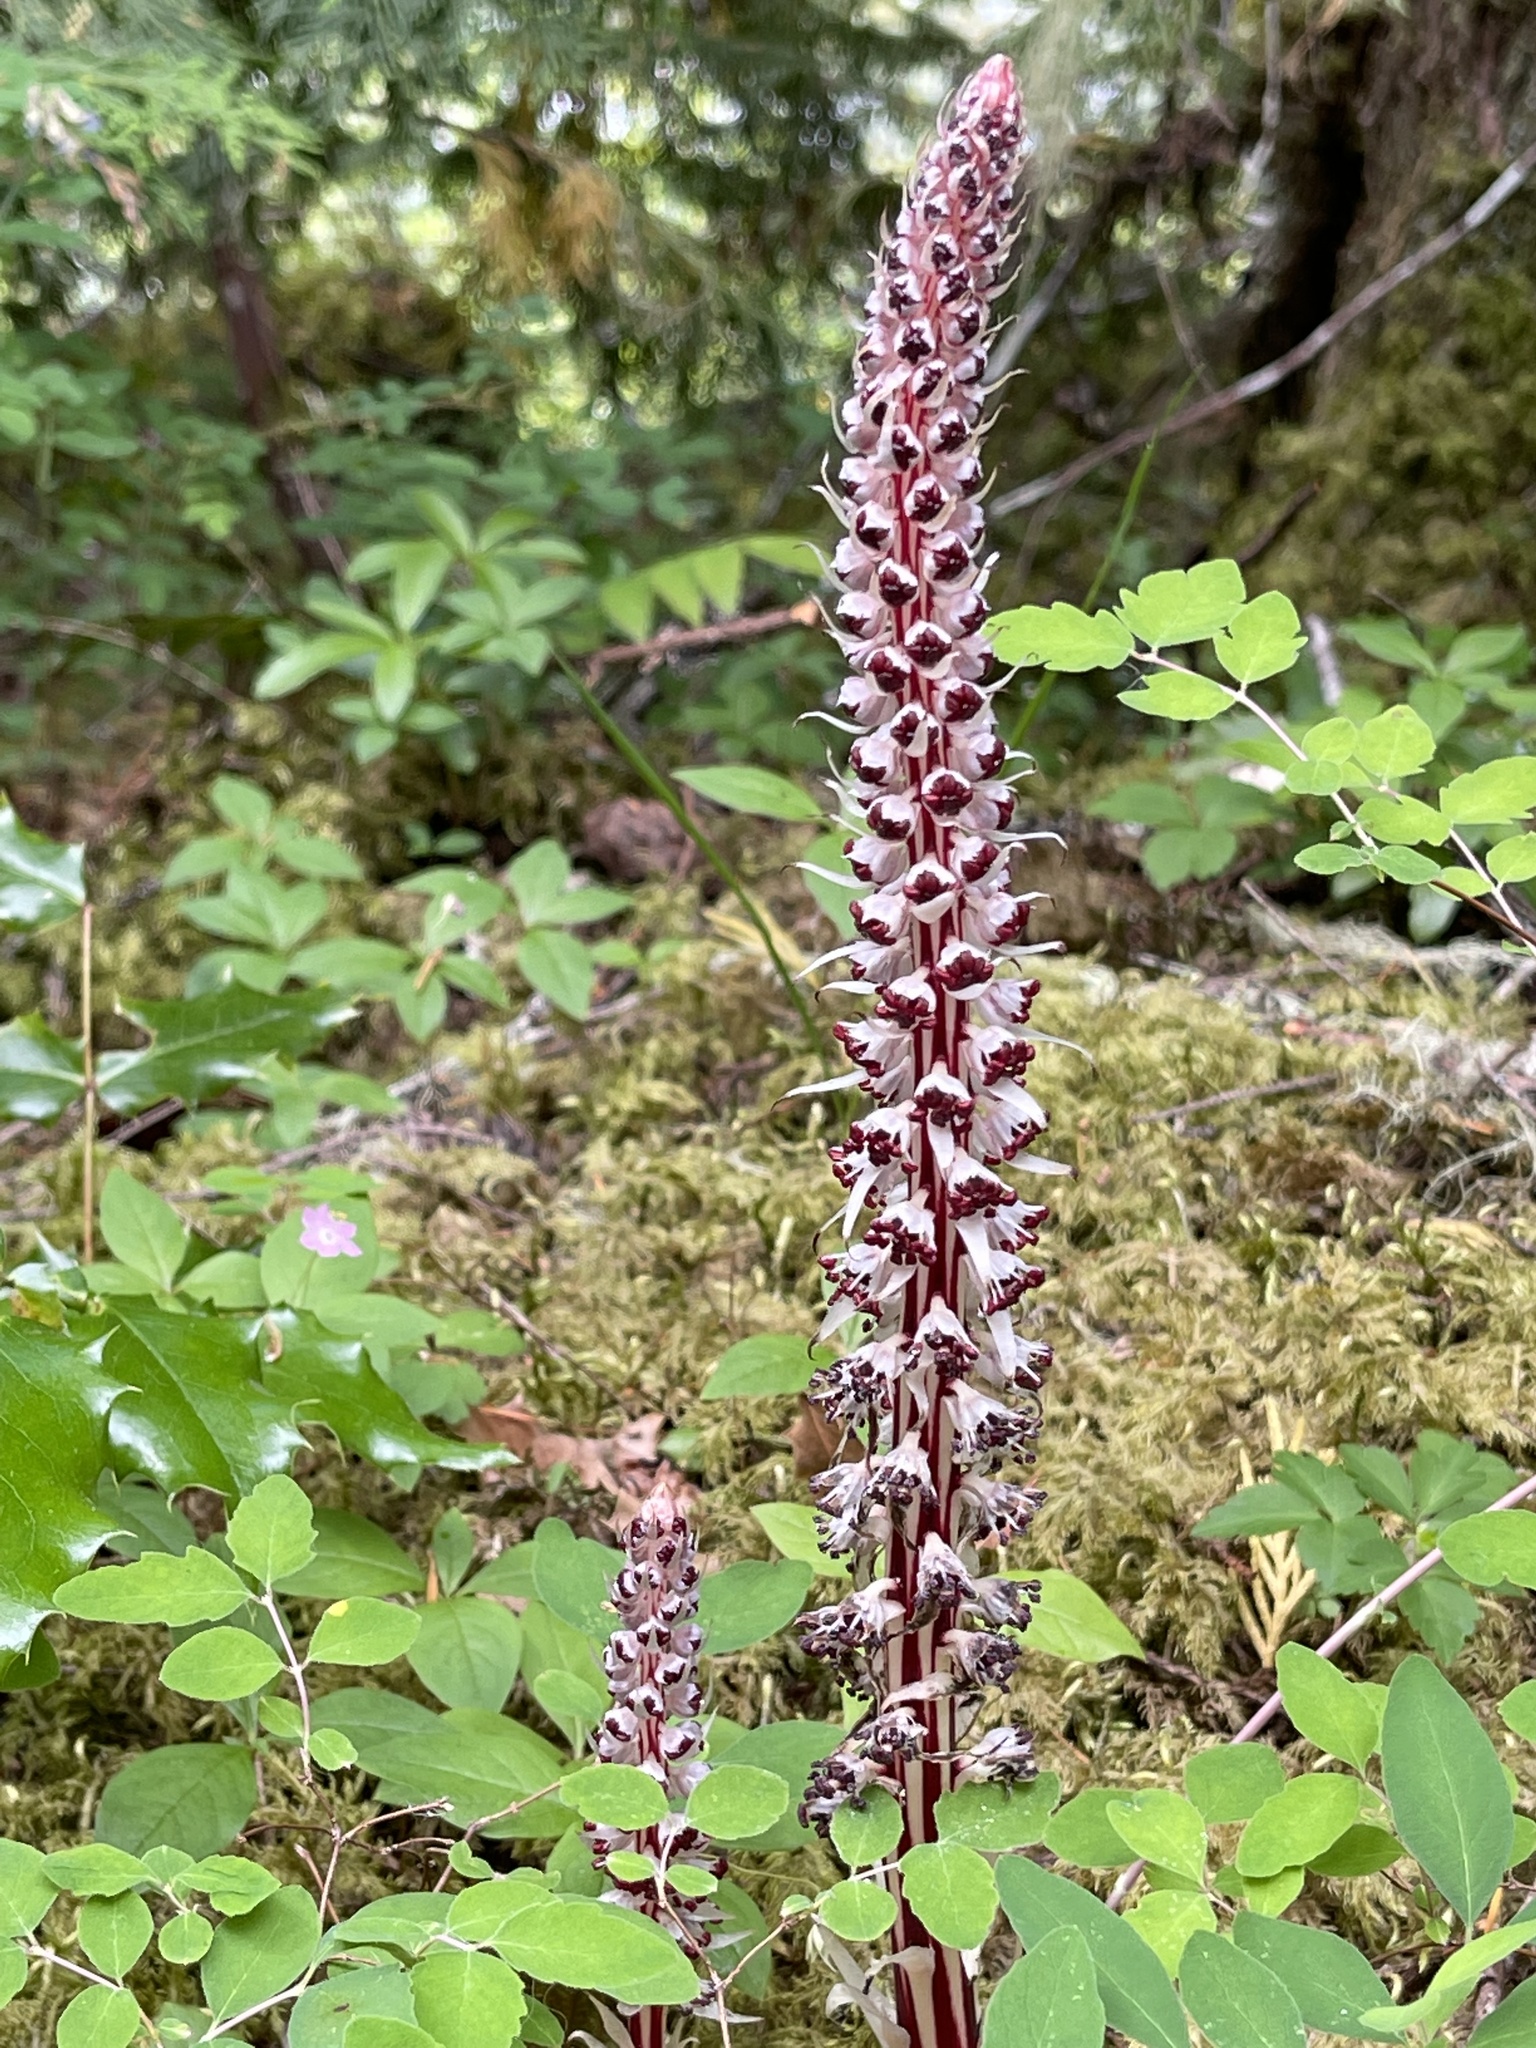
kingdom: Plantae
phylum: Tracheophyta
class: Magnoliopsida
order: Ericales
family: Ericaceae
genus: Allotropa
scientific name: Allotropa virgata
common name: Candy-striped allotropa
